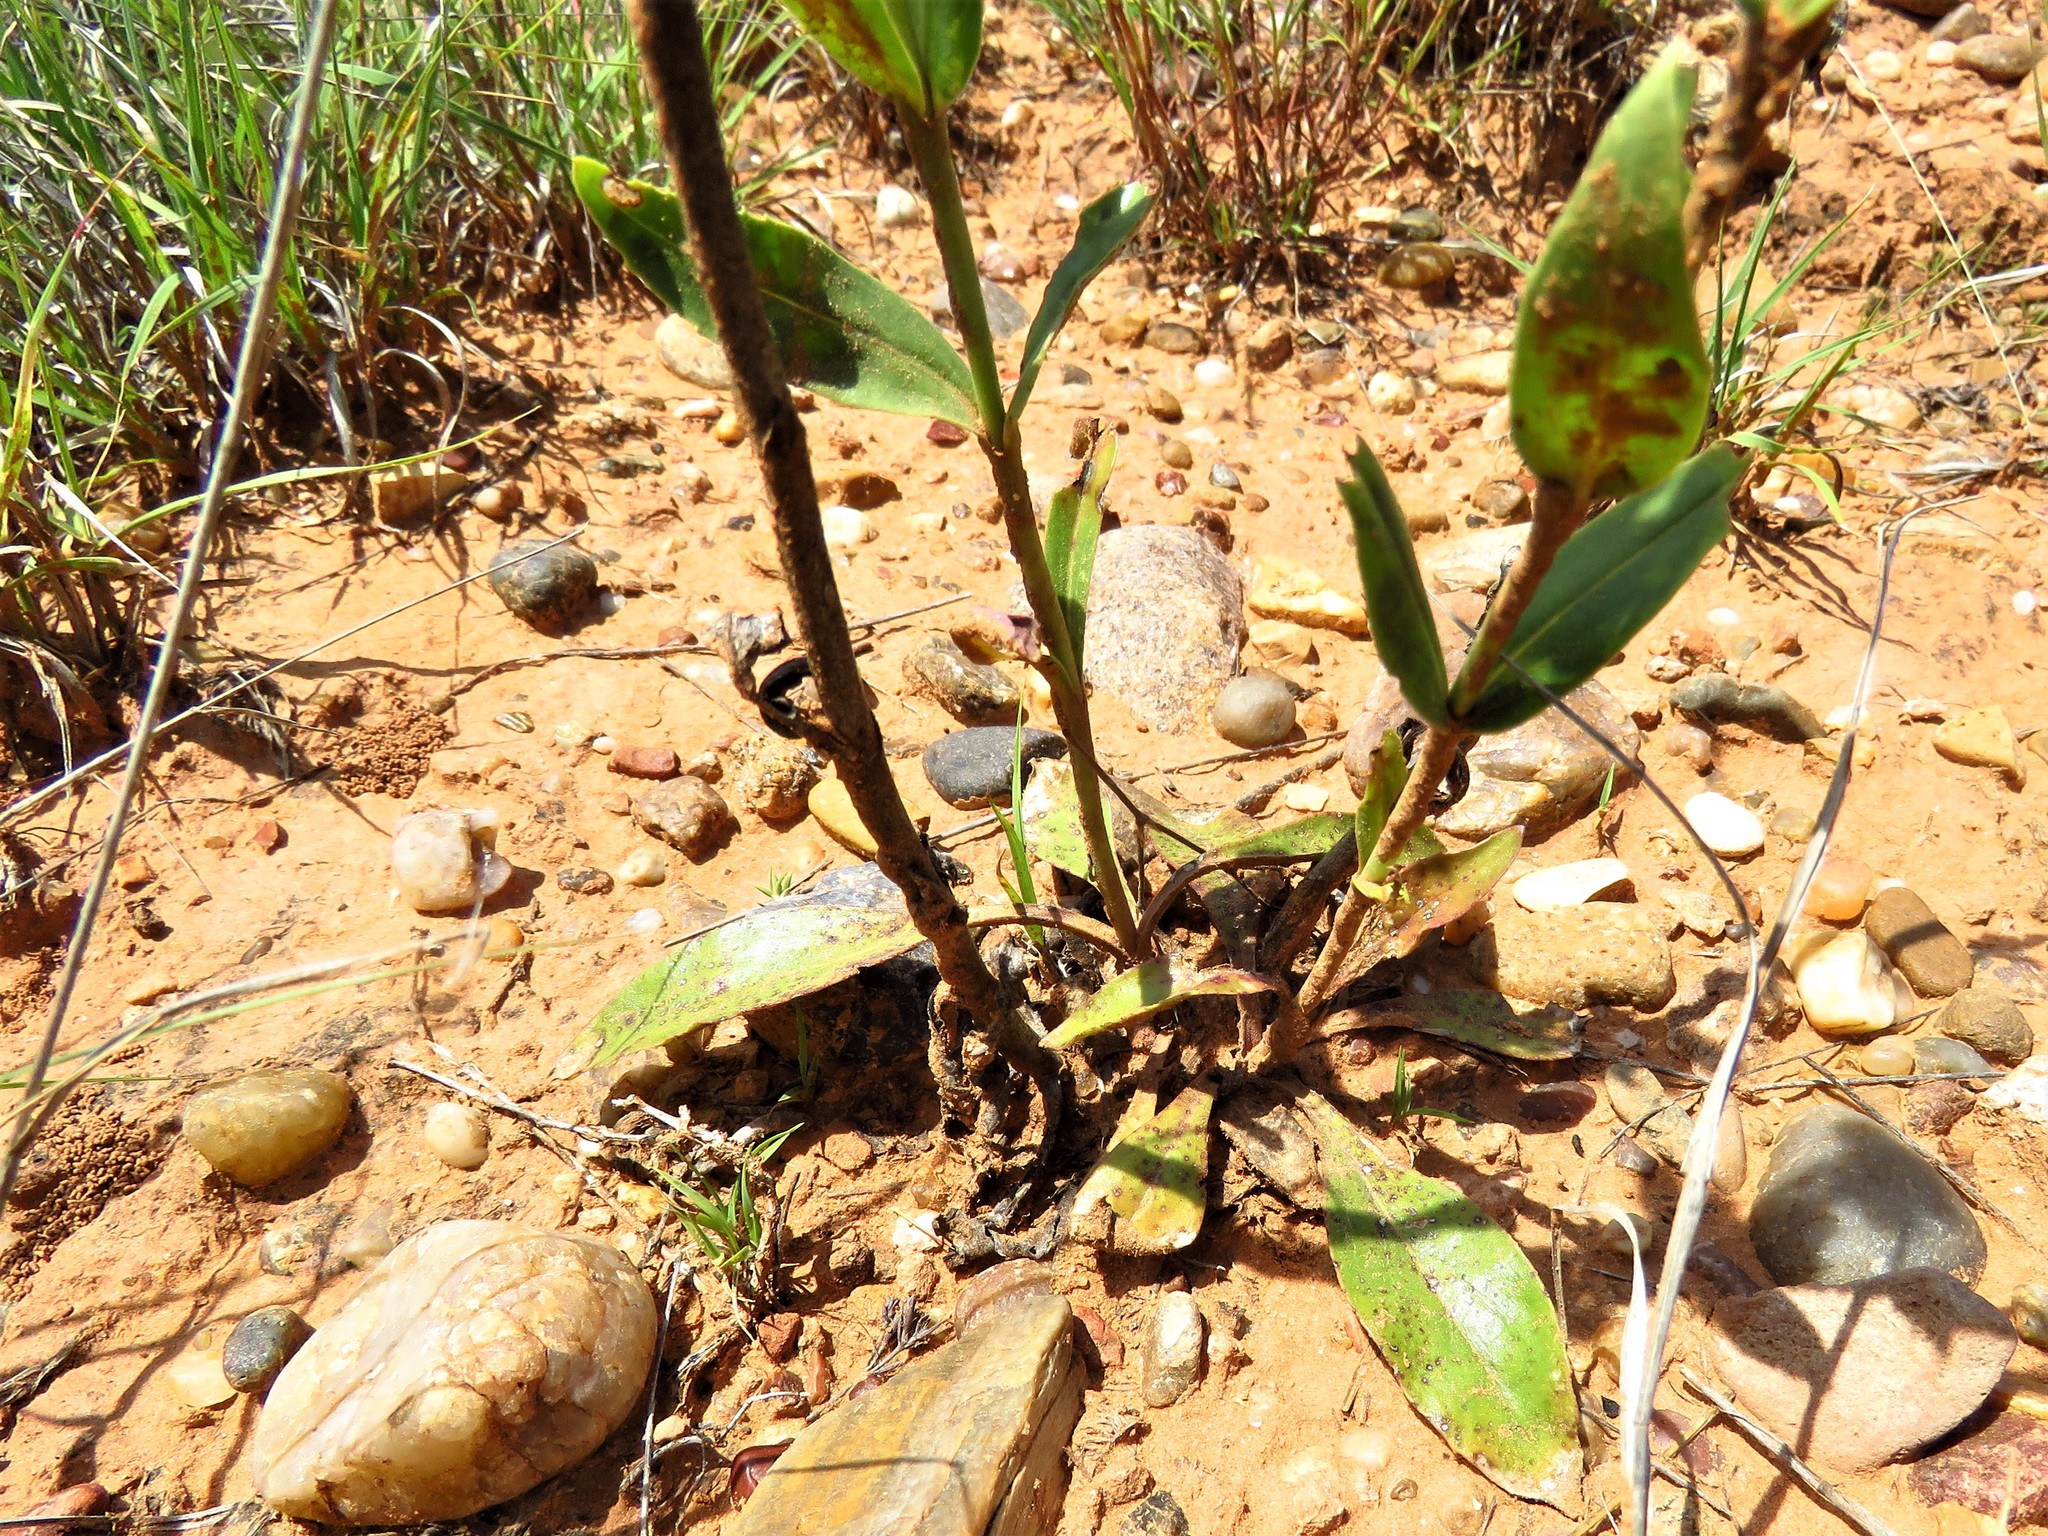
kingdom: Plantae
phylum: Tracheophyta
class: Magnoliopsida
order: Lamiales
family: Plantaginaceae
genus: Penstemon
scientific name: Penstemon albidus
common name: White beardtongue
